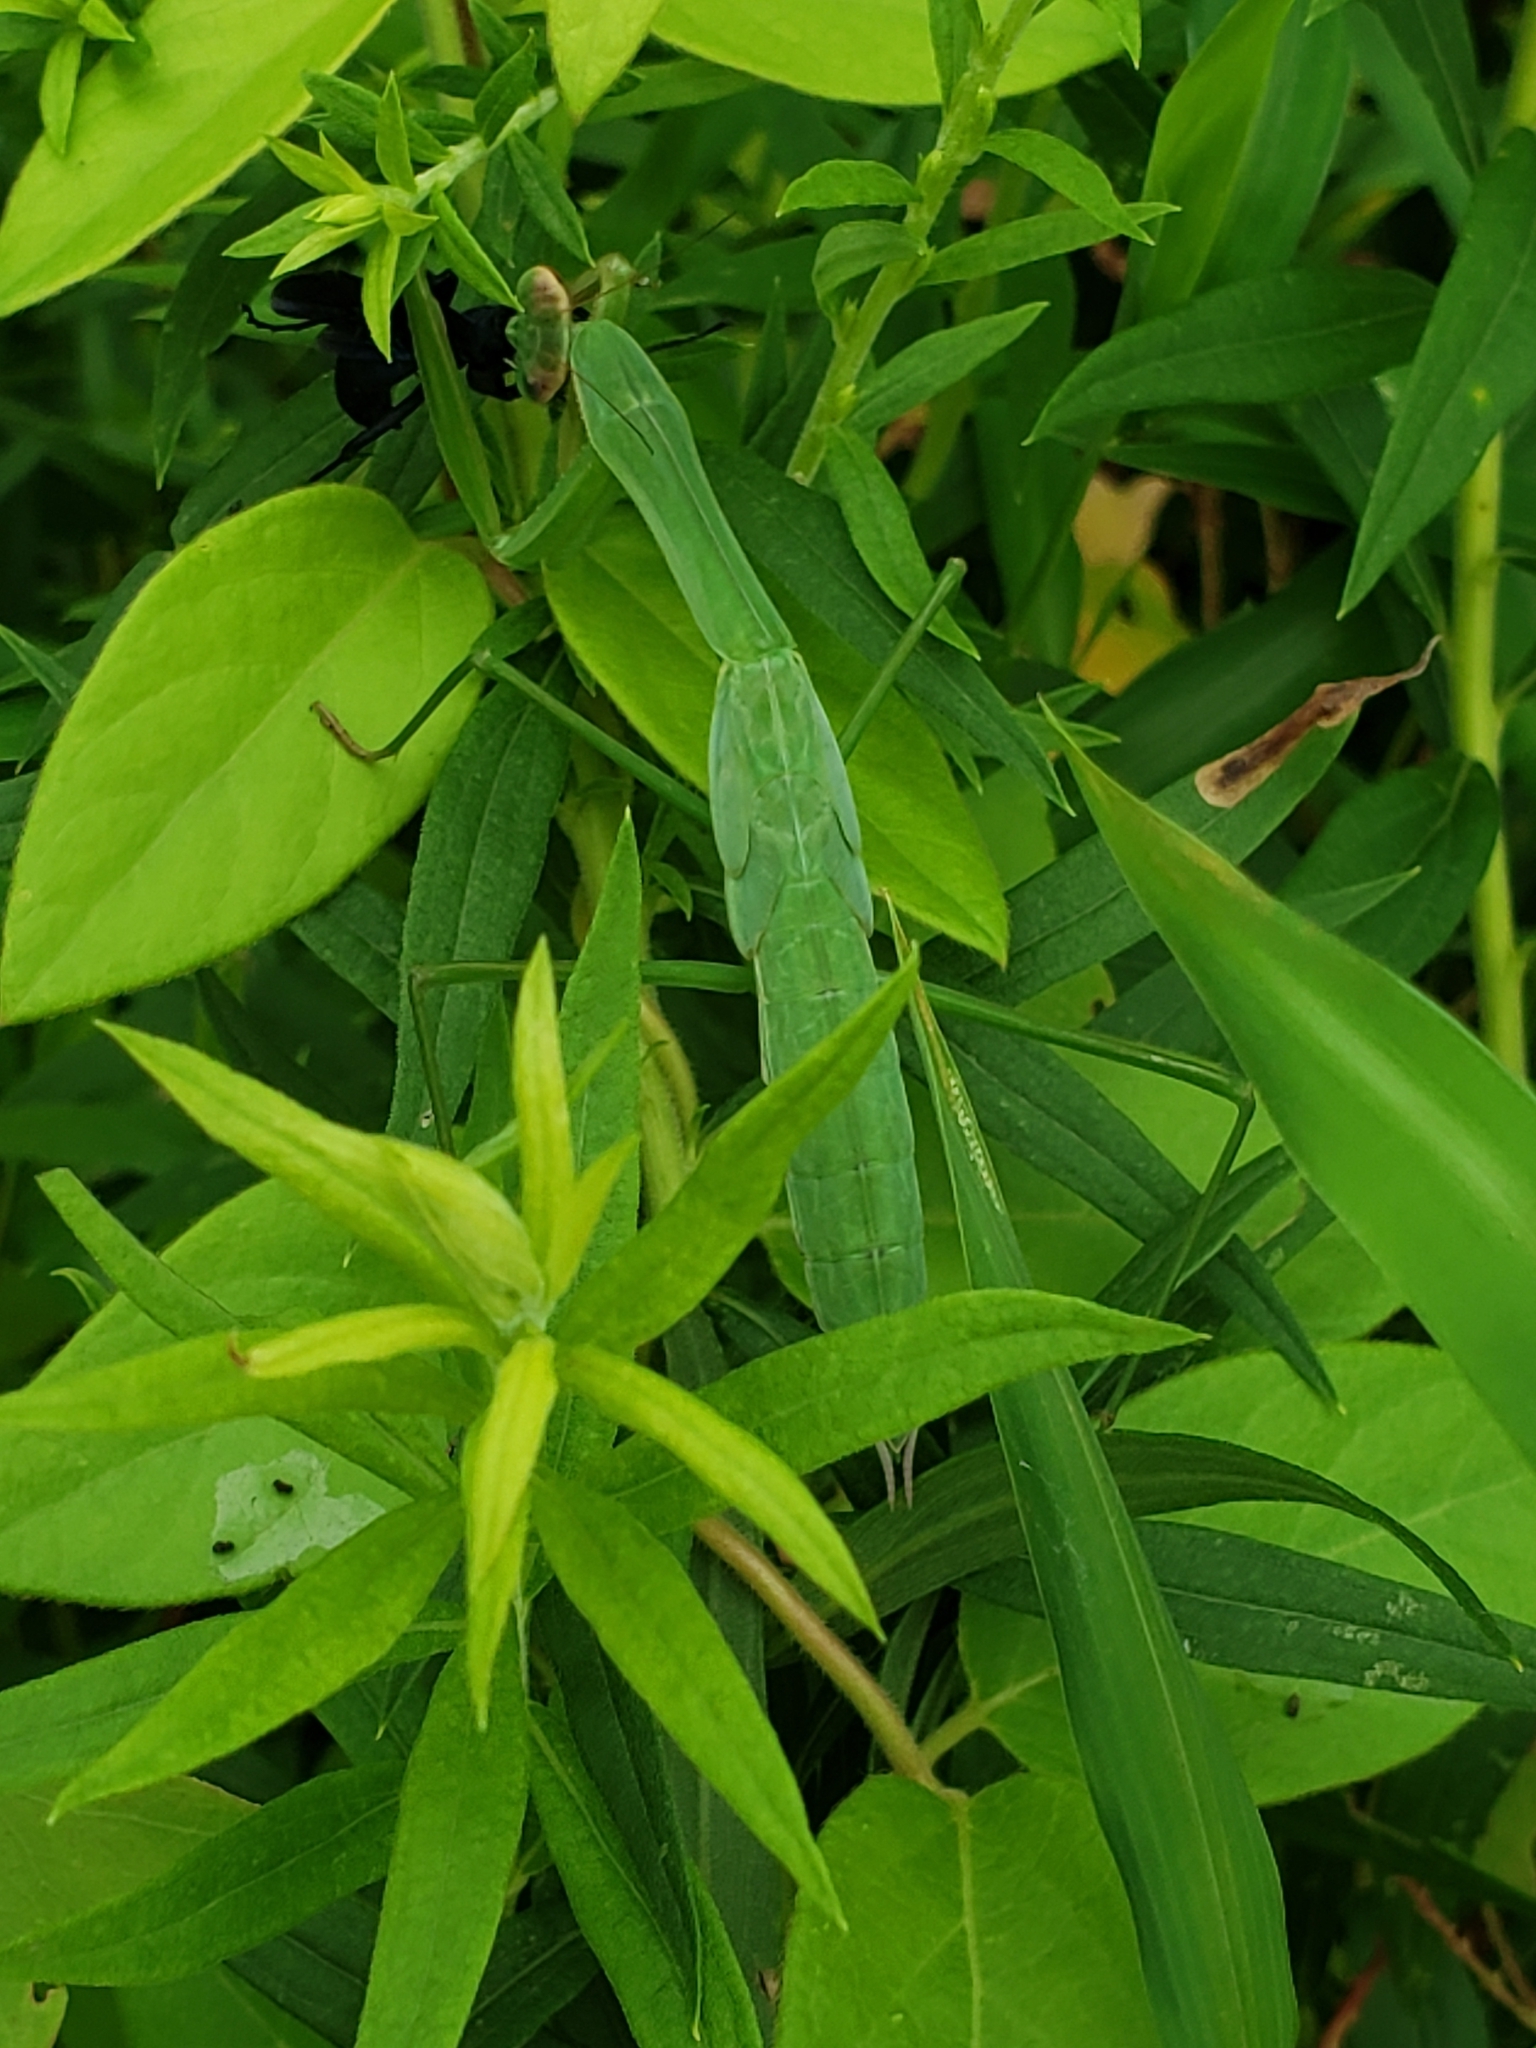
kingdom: Animalia
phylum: Arthropoda
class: Insecta
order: Mantodea
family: Mantidae
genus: Tenodera
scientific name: Tenodera sinensis
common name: Chinese mantis
